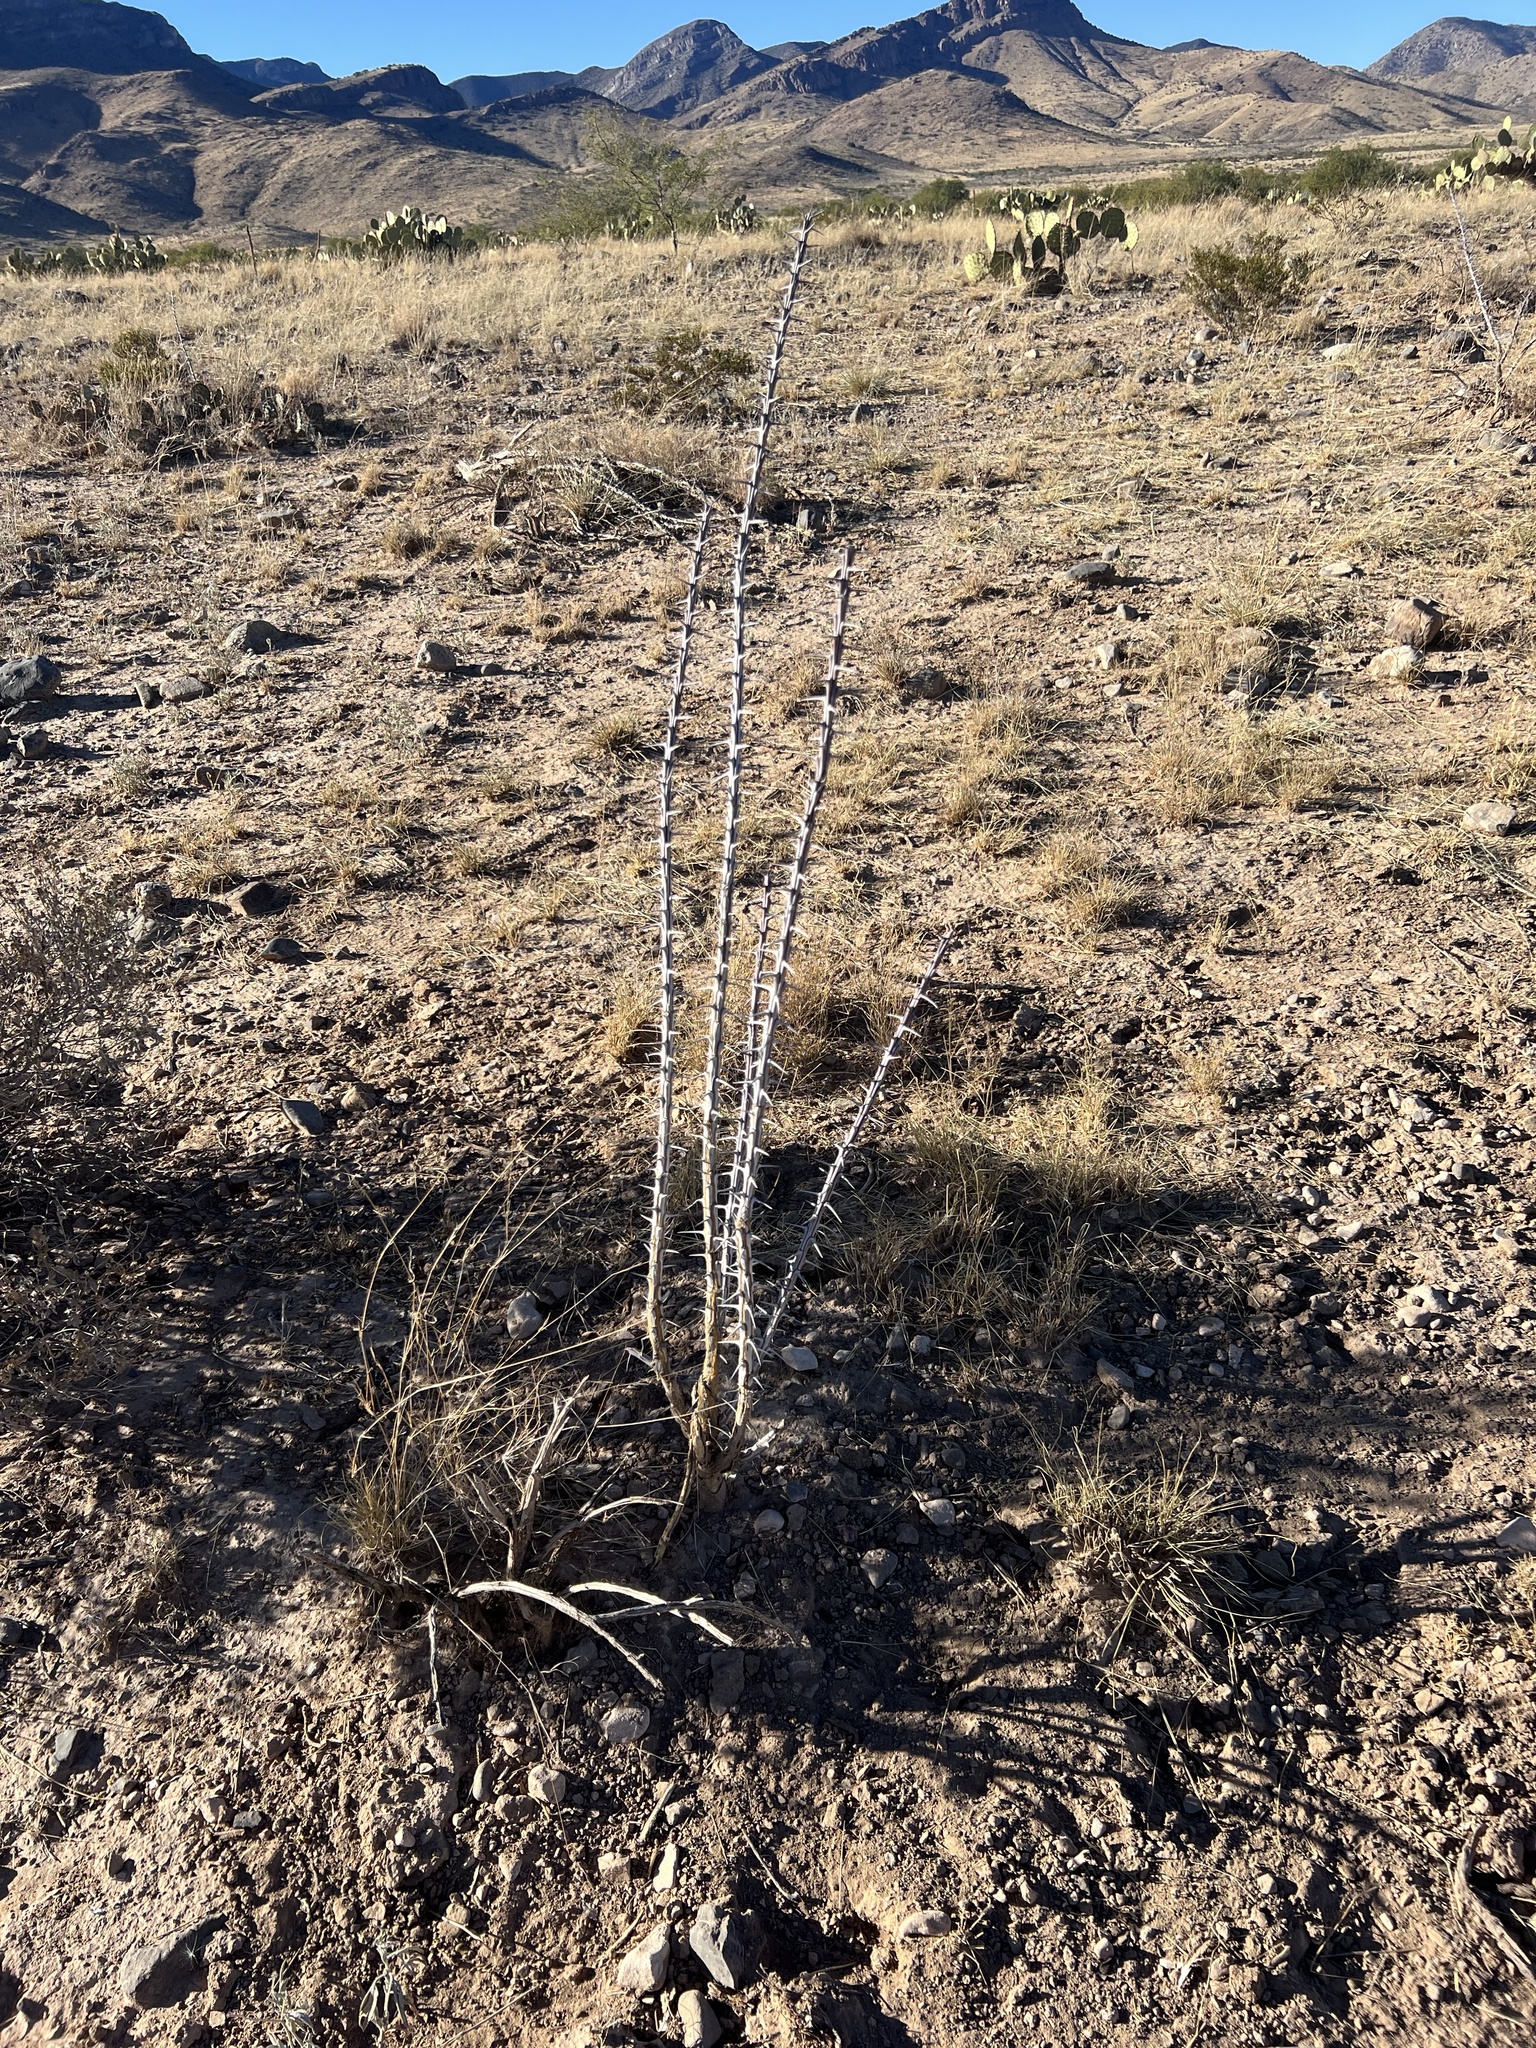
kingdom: Plantae
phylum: Tracheophyta
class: Magnoliopsida
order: Ericales
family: Fouquieriaceae
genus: Fouquieria
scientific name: Fouquieria splendens
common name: Vine-cactus
